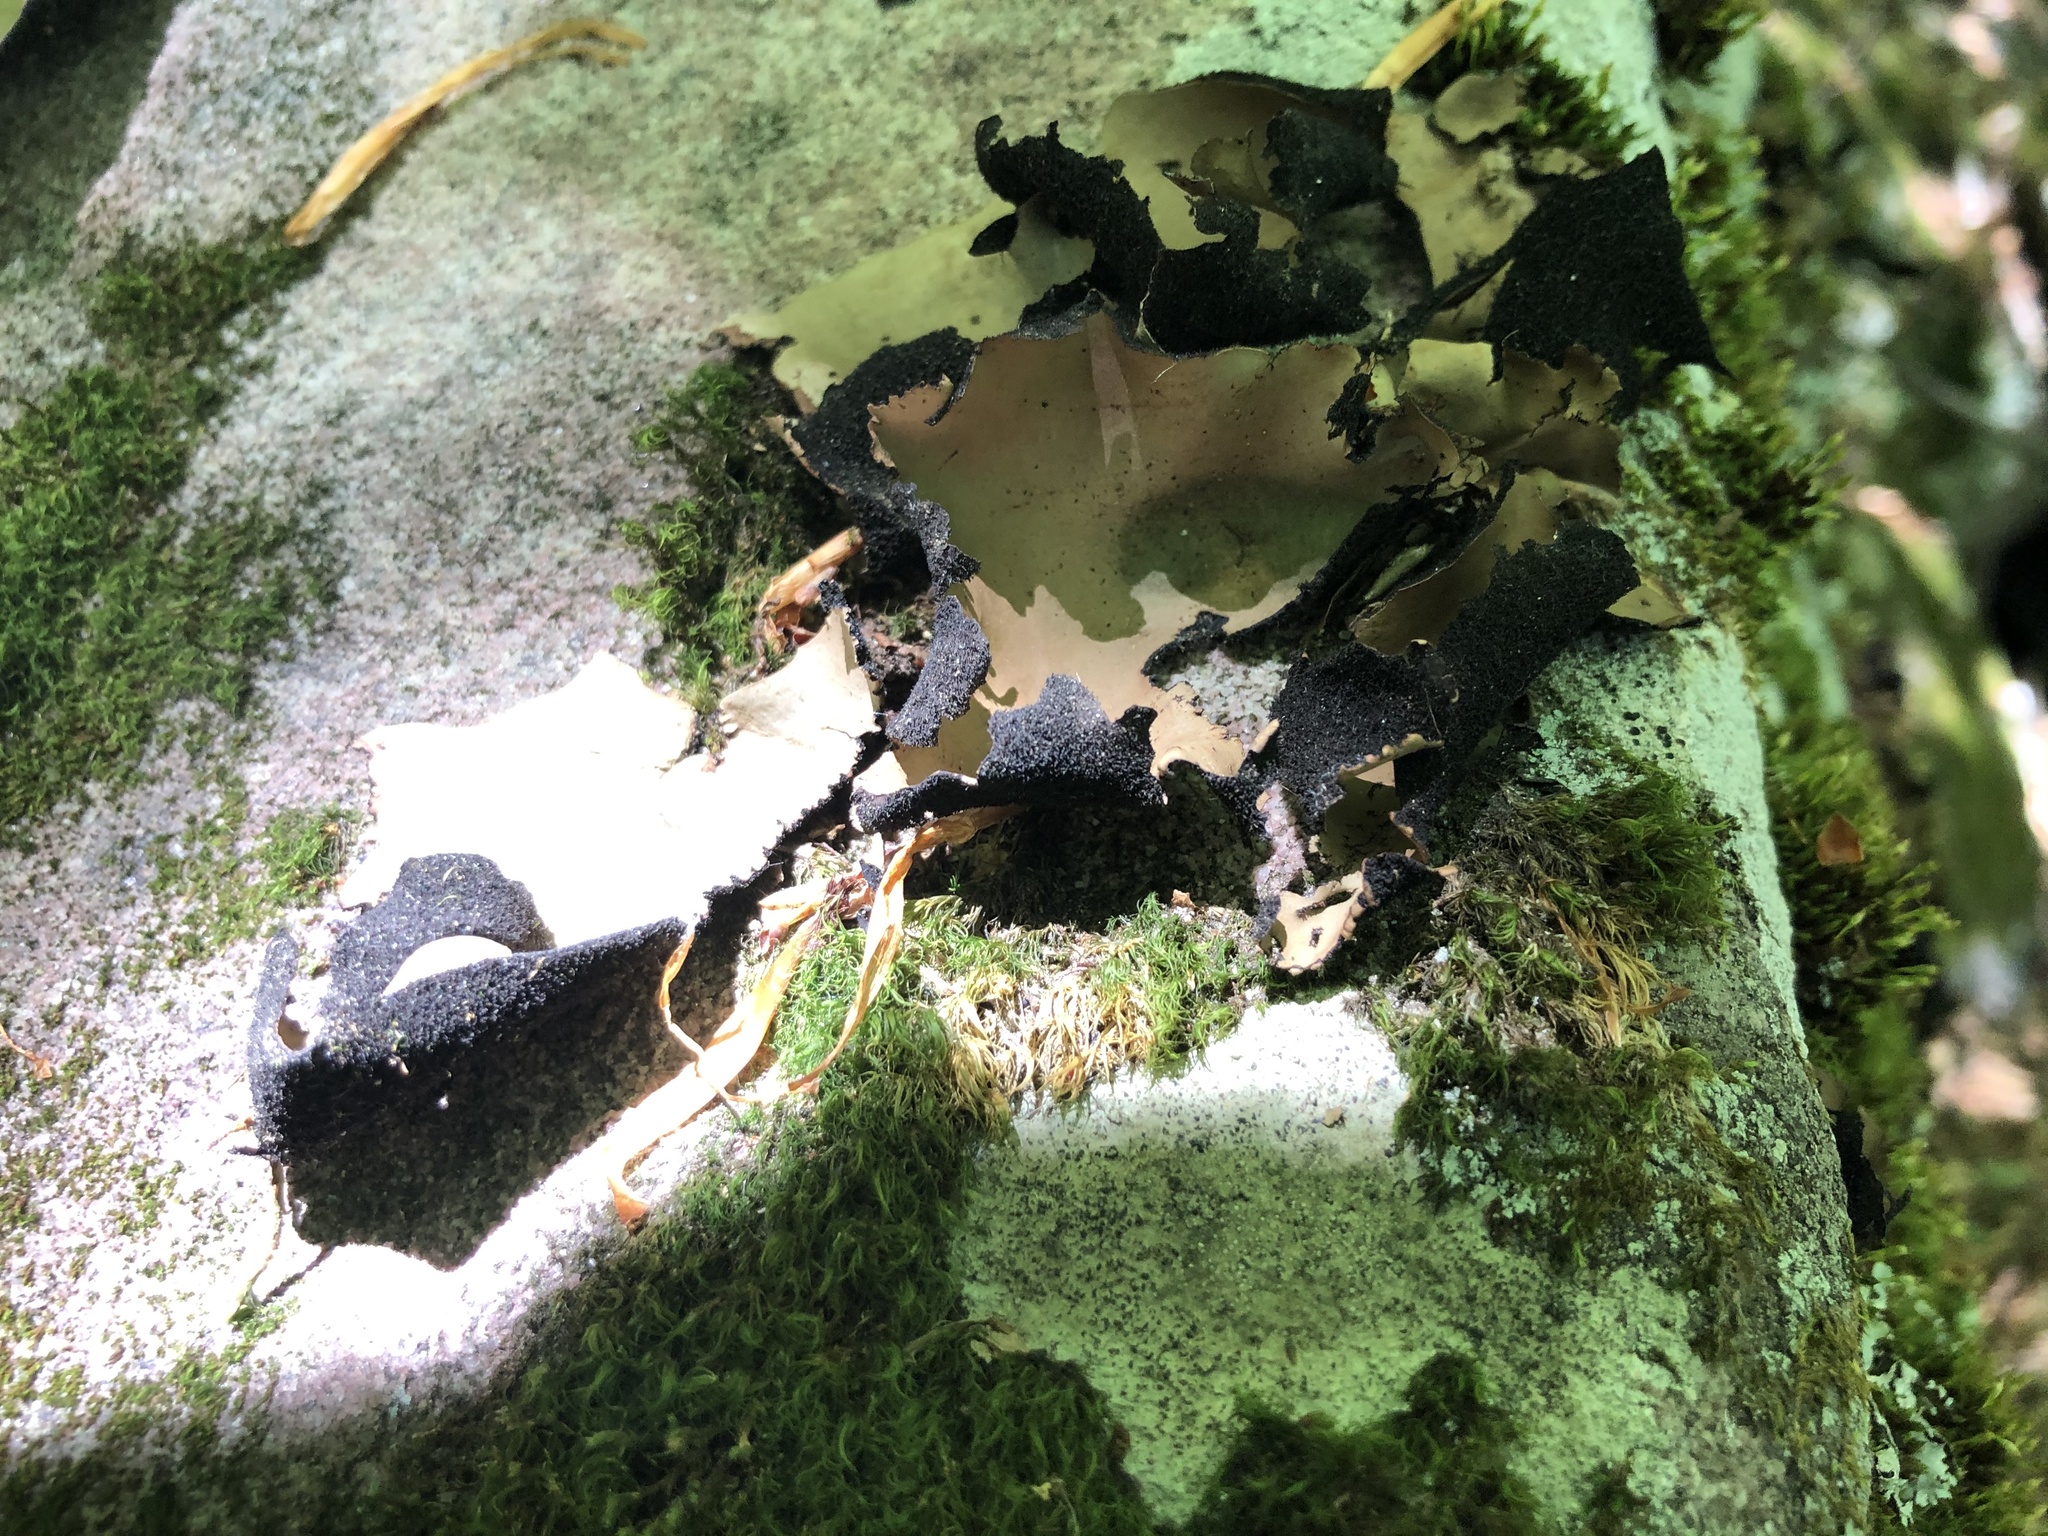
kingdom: Fungi
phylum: Ascomycota
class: Lecanoromycetes
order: Umbilicariales
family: Umbilicariaceae
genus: Umbilicaria
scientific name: Umbilicaria mammulata
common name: Smooth rock tripe
